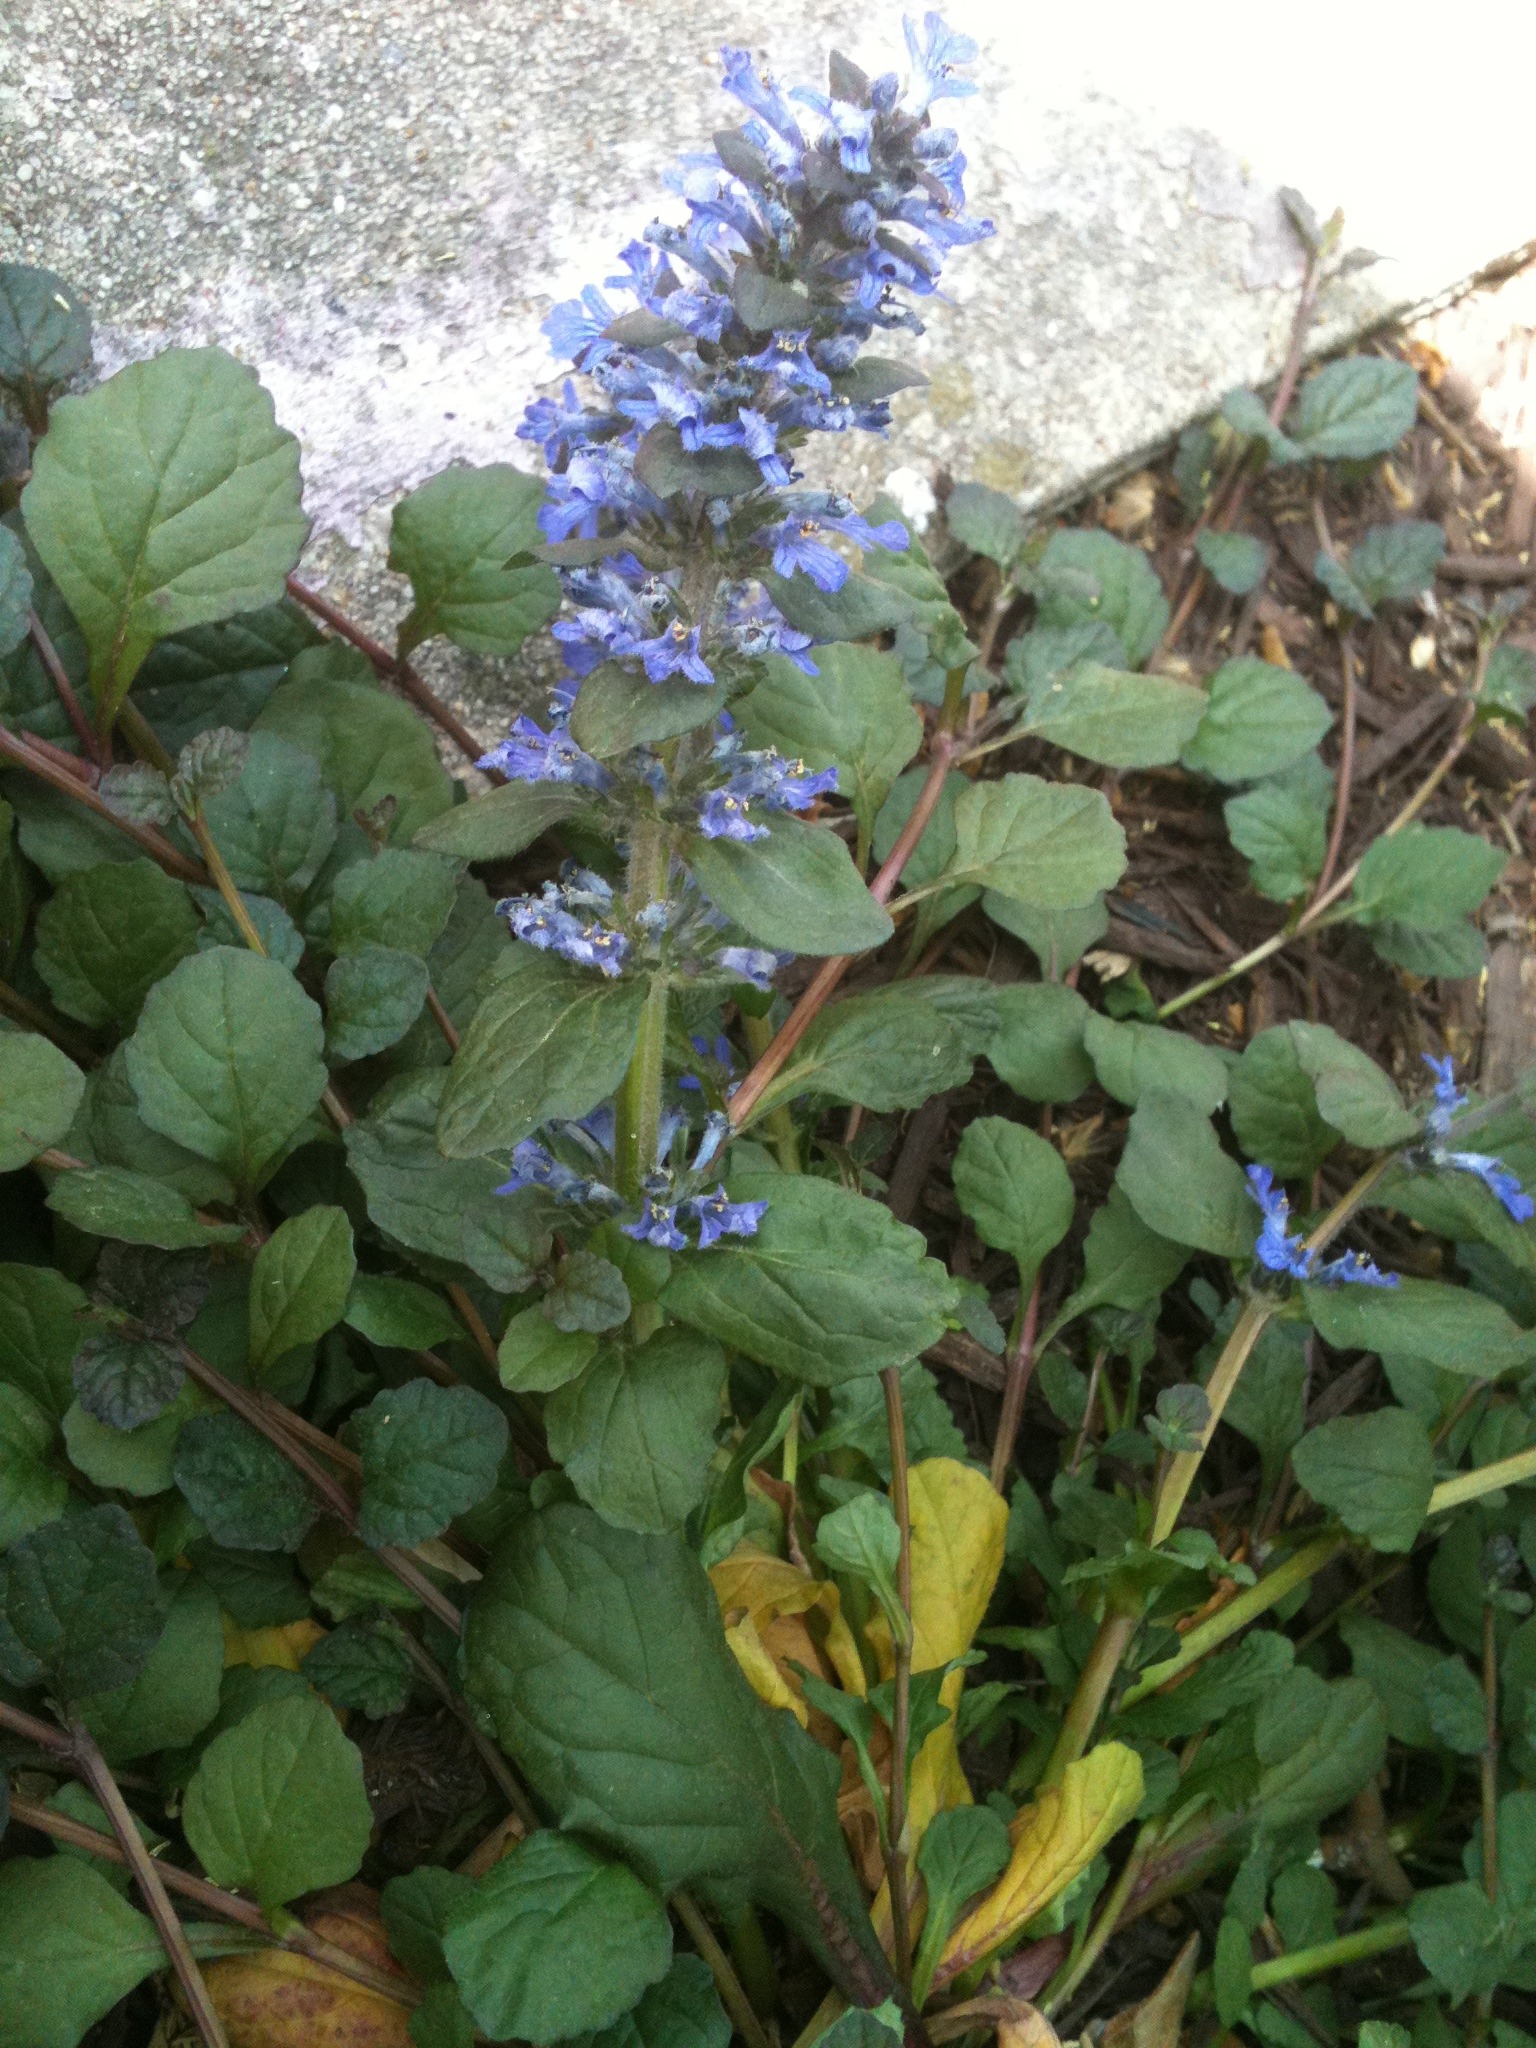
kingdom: Plantae
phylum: Tracheophyta
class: Magnoliopsida
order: Lamiales
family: Lamiaceae
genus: Ajuga
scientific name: Ajuga reptans
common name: Bugle
